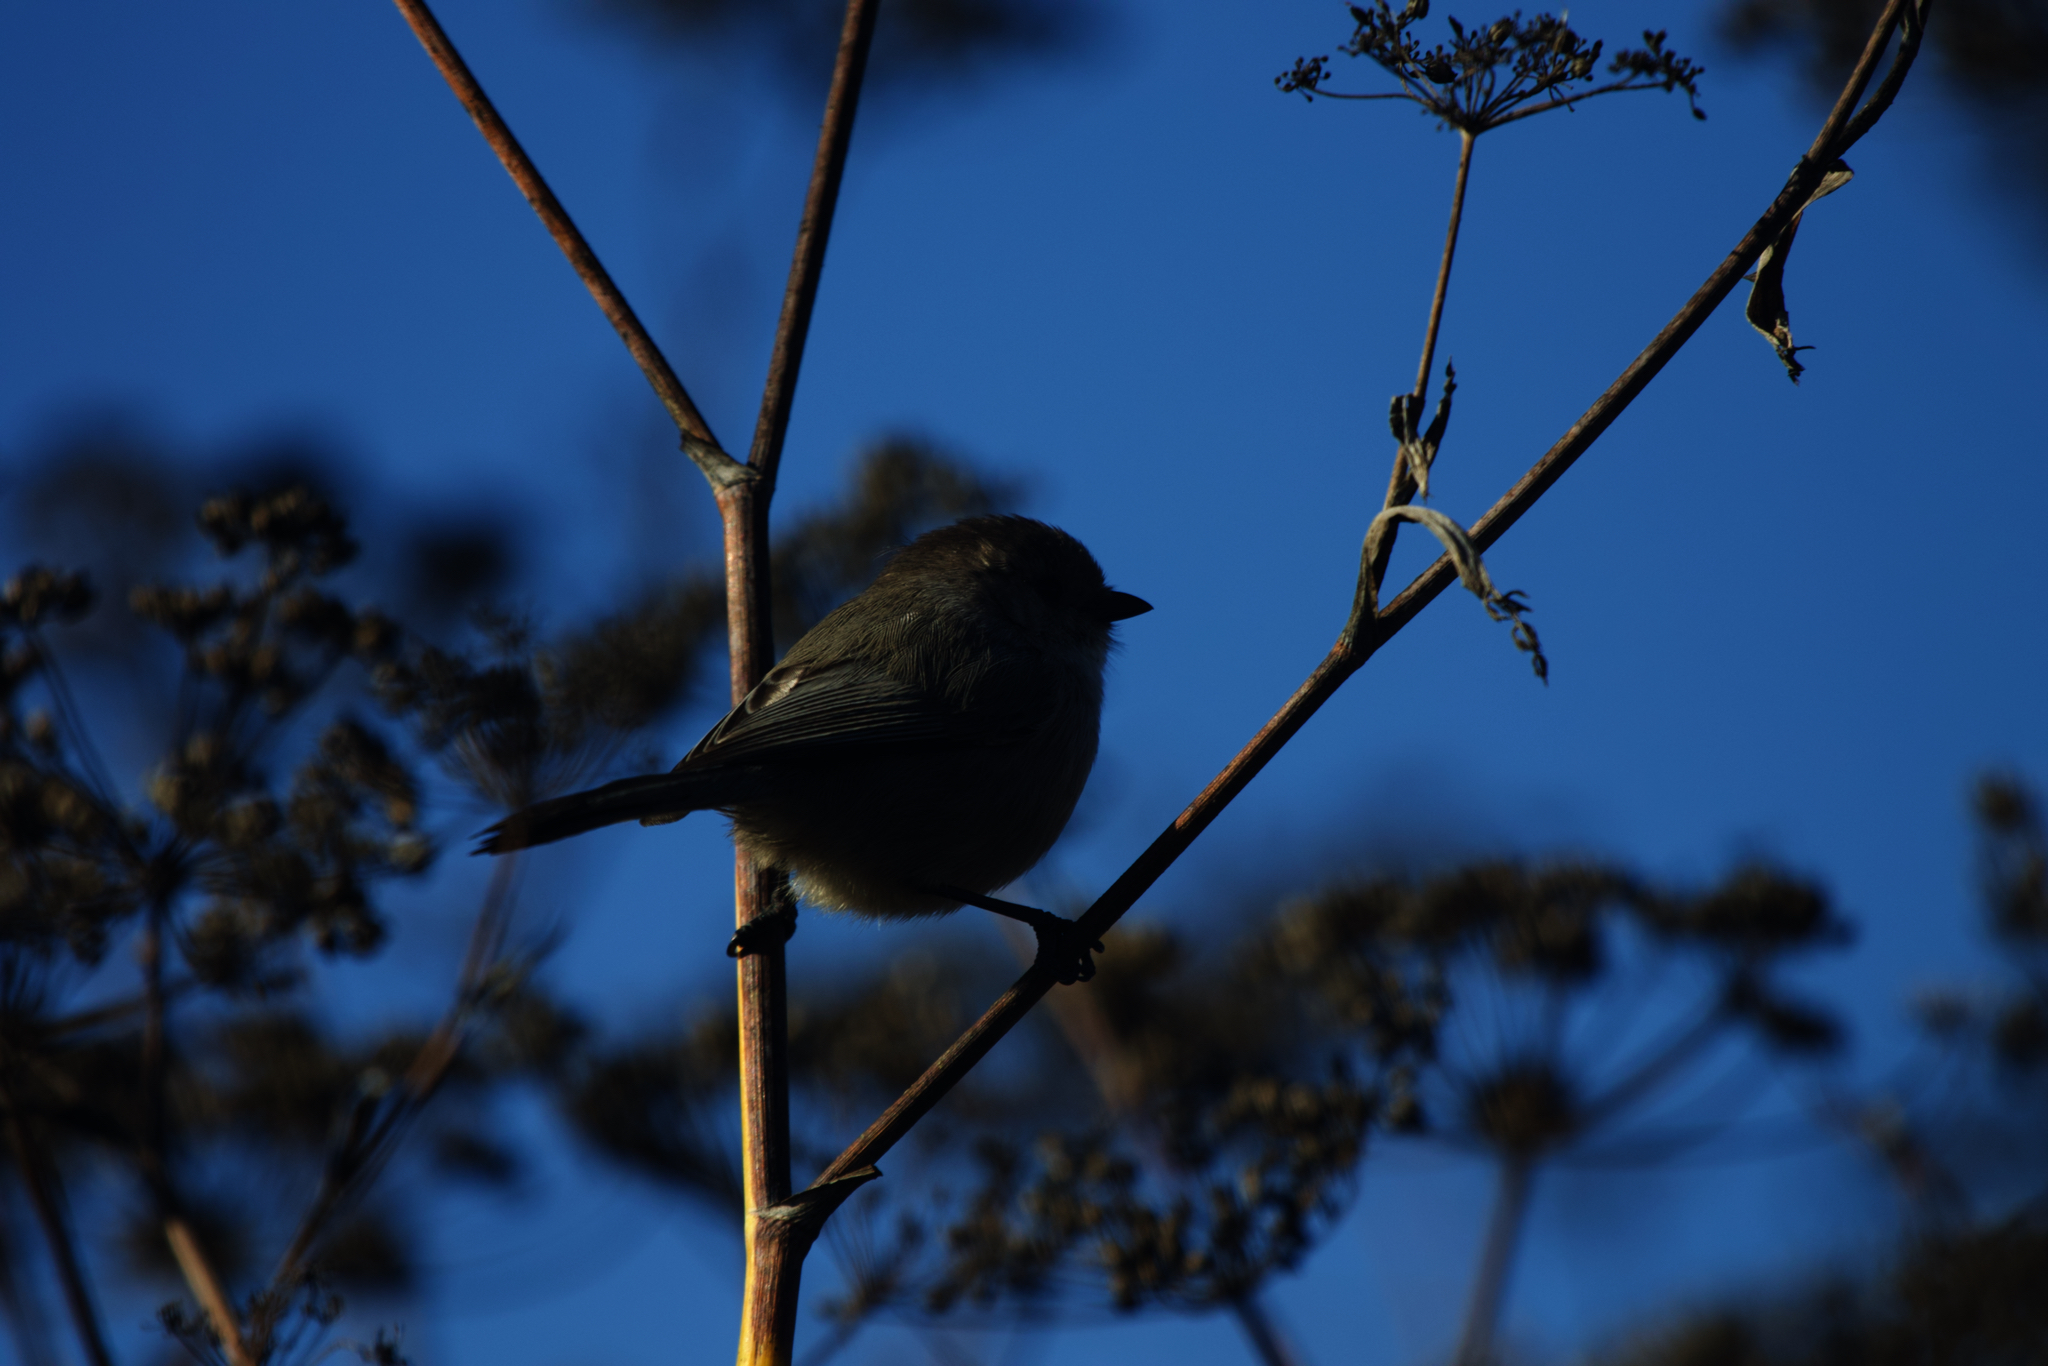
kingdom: Animalia
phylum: Chordata
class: Aves
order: Passeriformes
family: Aegithalidae
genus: Psaltriparus
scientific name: Psaltriparus minimus
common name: American bushtit
